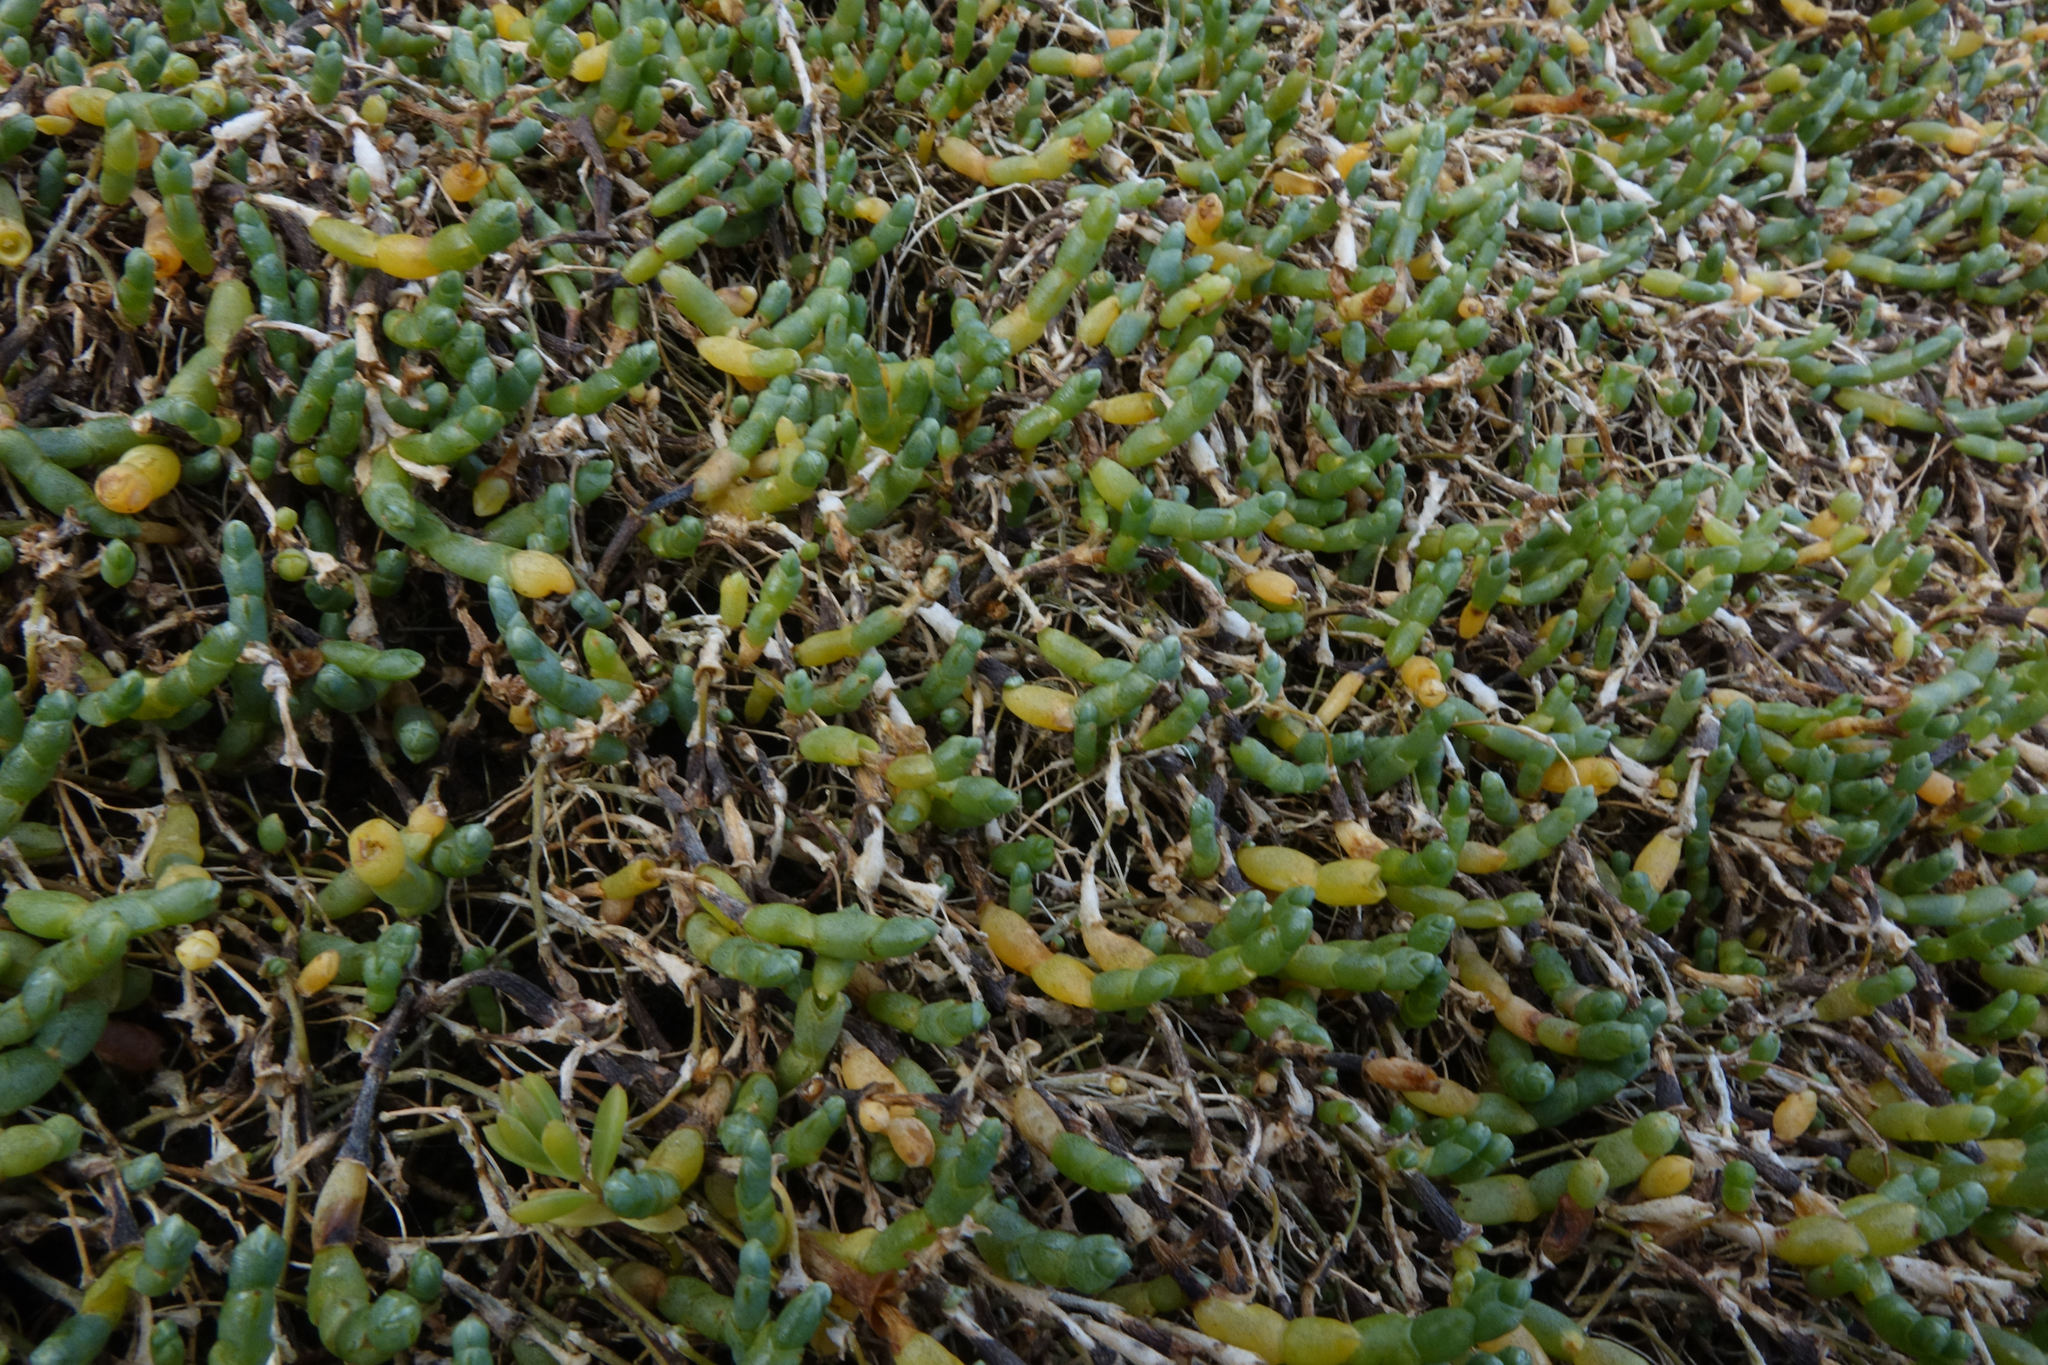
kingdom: Plantae
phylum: Tracheophyta
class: Magnoliopsida
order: Caryophyllales
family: Amaranthaceae
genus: Salicornia
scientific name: Salicornia quinqueflora
